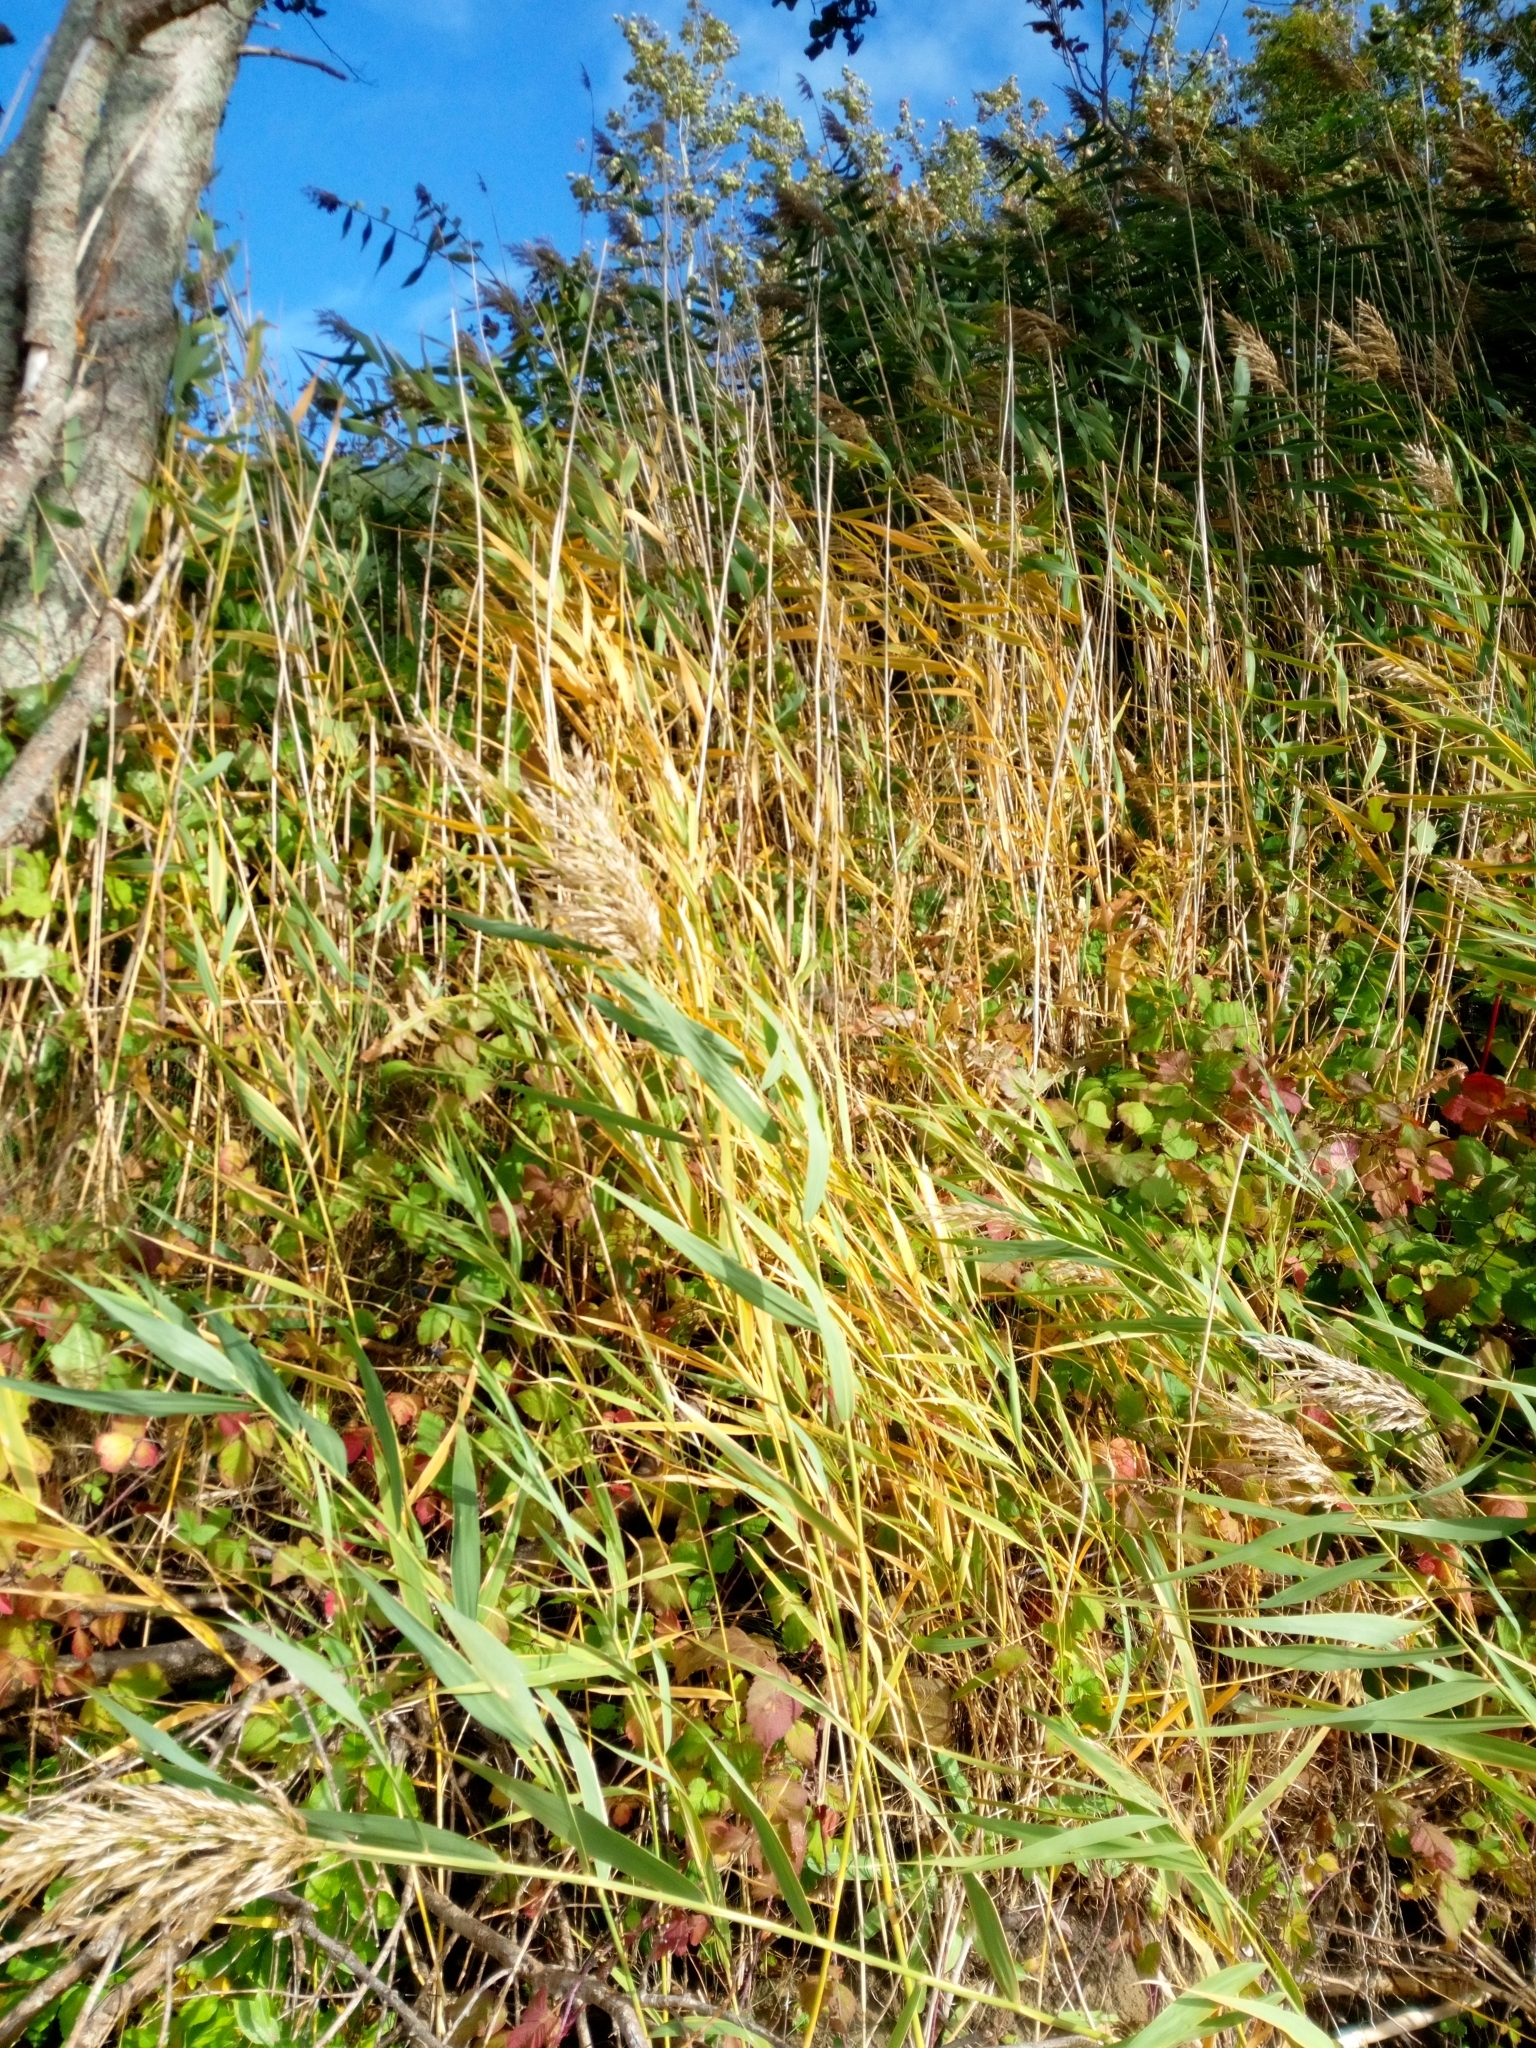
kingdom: Plantae
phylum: Tracheophyta
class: Liliopsida
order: Poales
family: Poaceae
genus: Phragmites
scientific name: Phragmites australis
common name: Common reed
